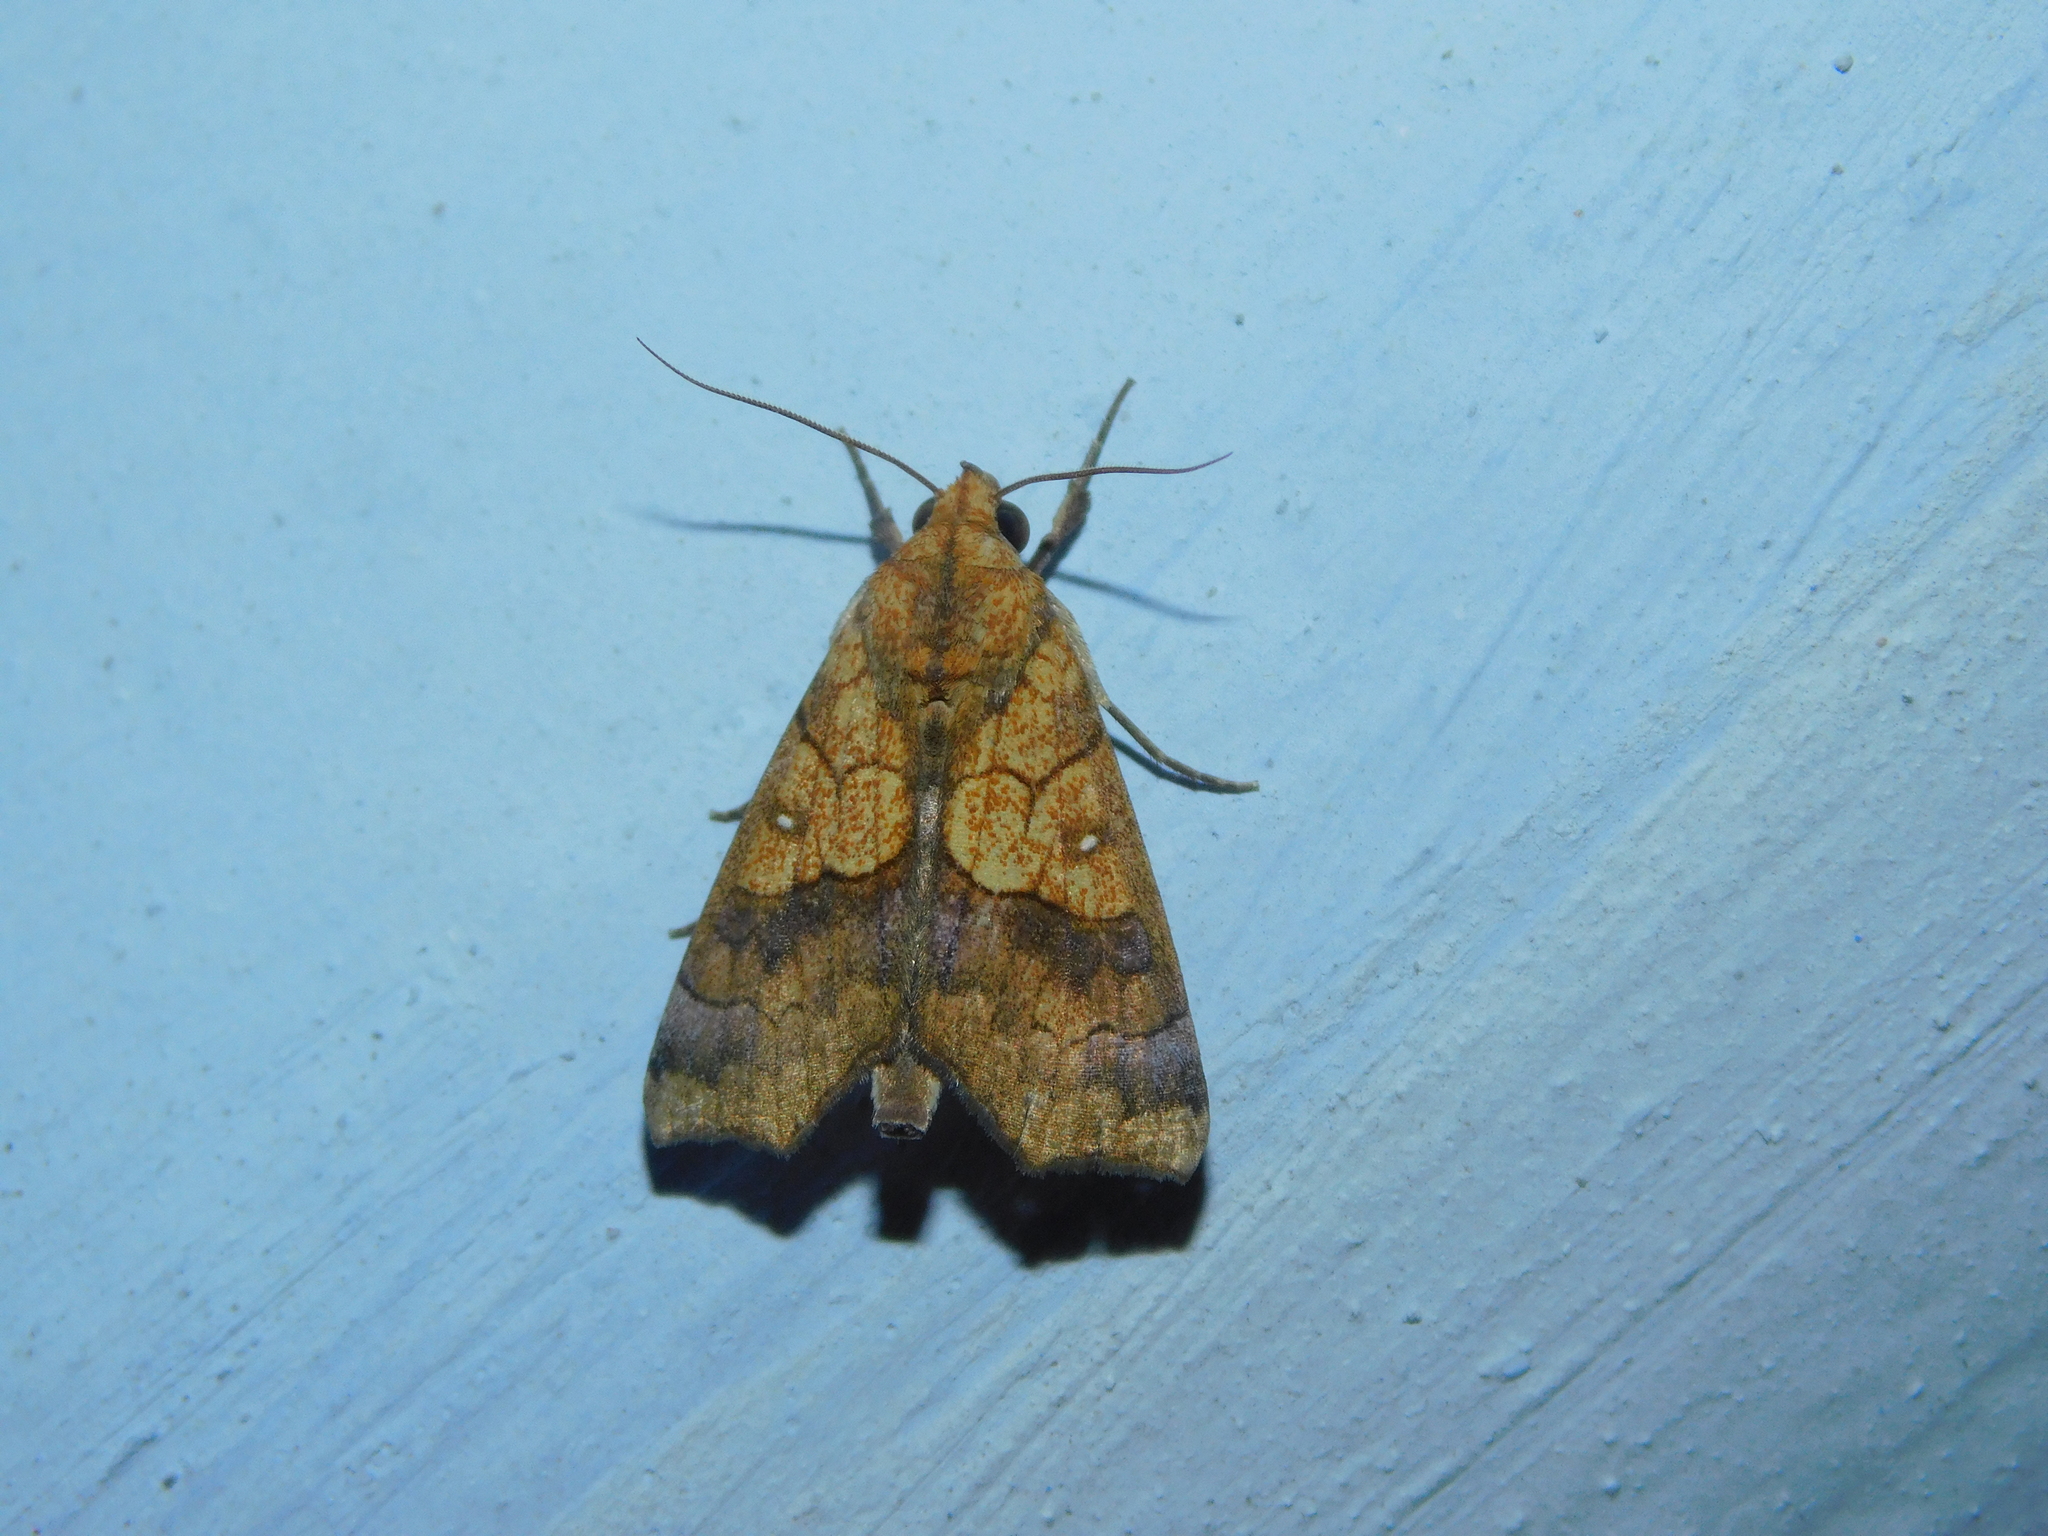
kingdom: Animalia
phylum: Arthropoda
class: Insecta
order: Lepidoptera
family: Erebidae
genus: Anomis
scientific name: Anomis flava
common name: Moth
